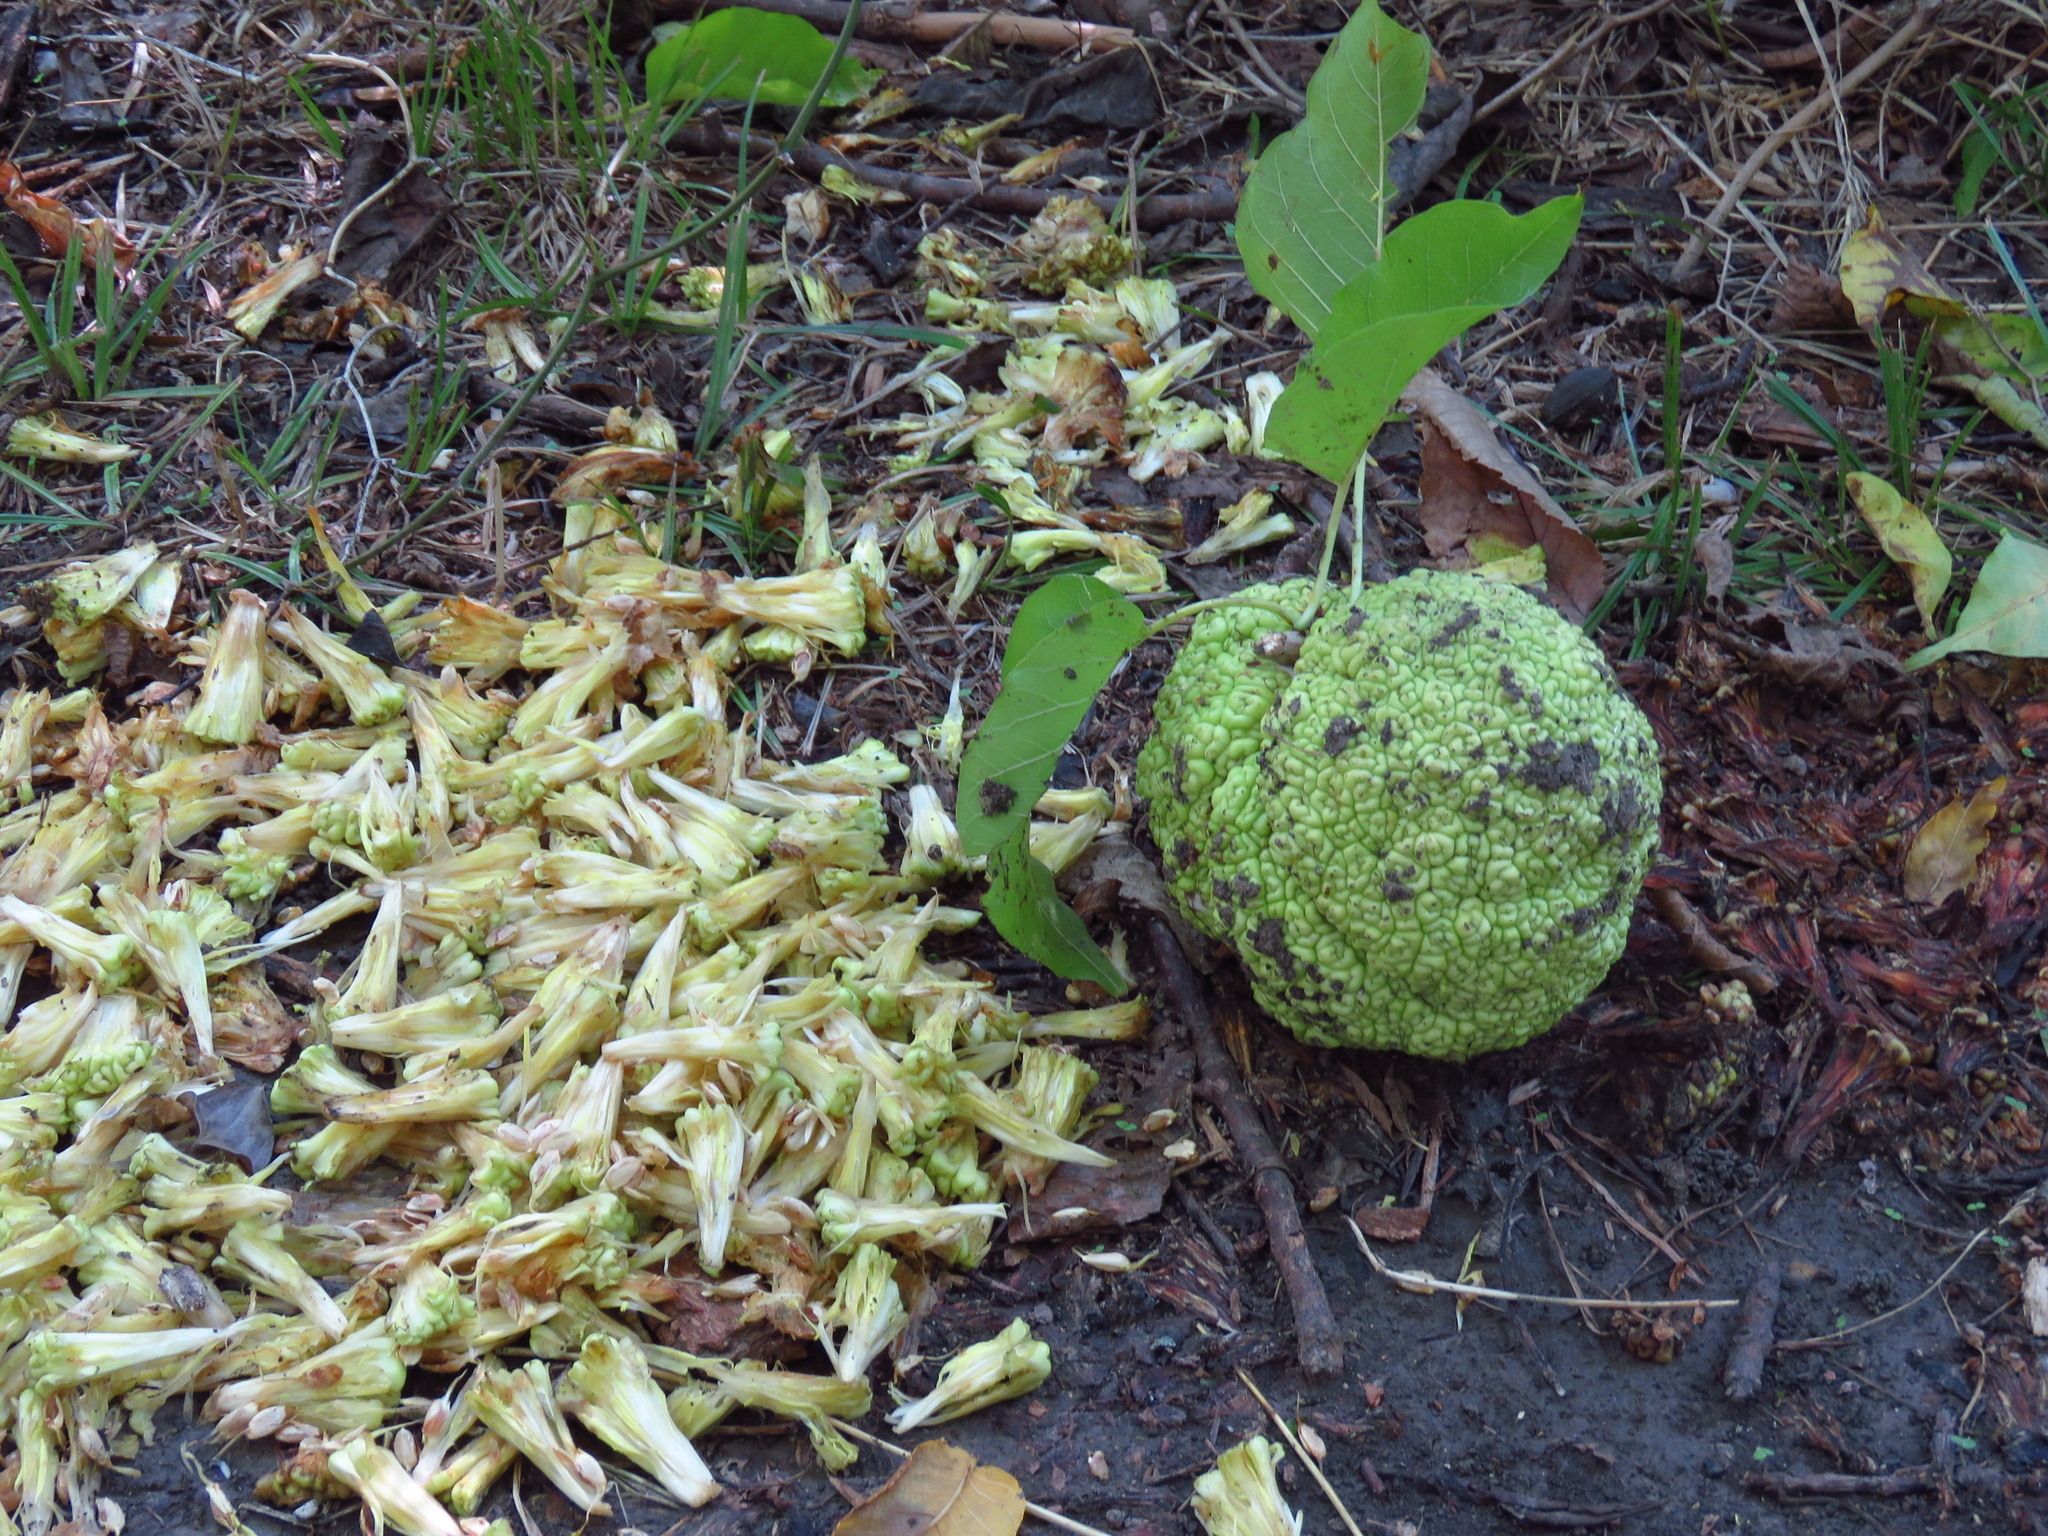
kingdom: Plantae
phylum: Tracheophyta
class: Magnoliopsida
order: Rosales
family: Moraceae
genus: Maclura
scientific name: Maclura pomifera
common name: Osage-orange
